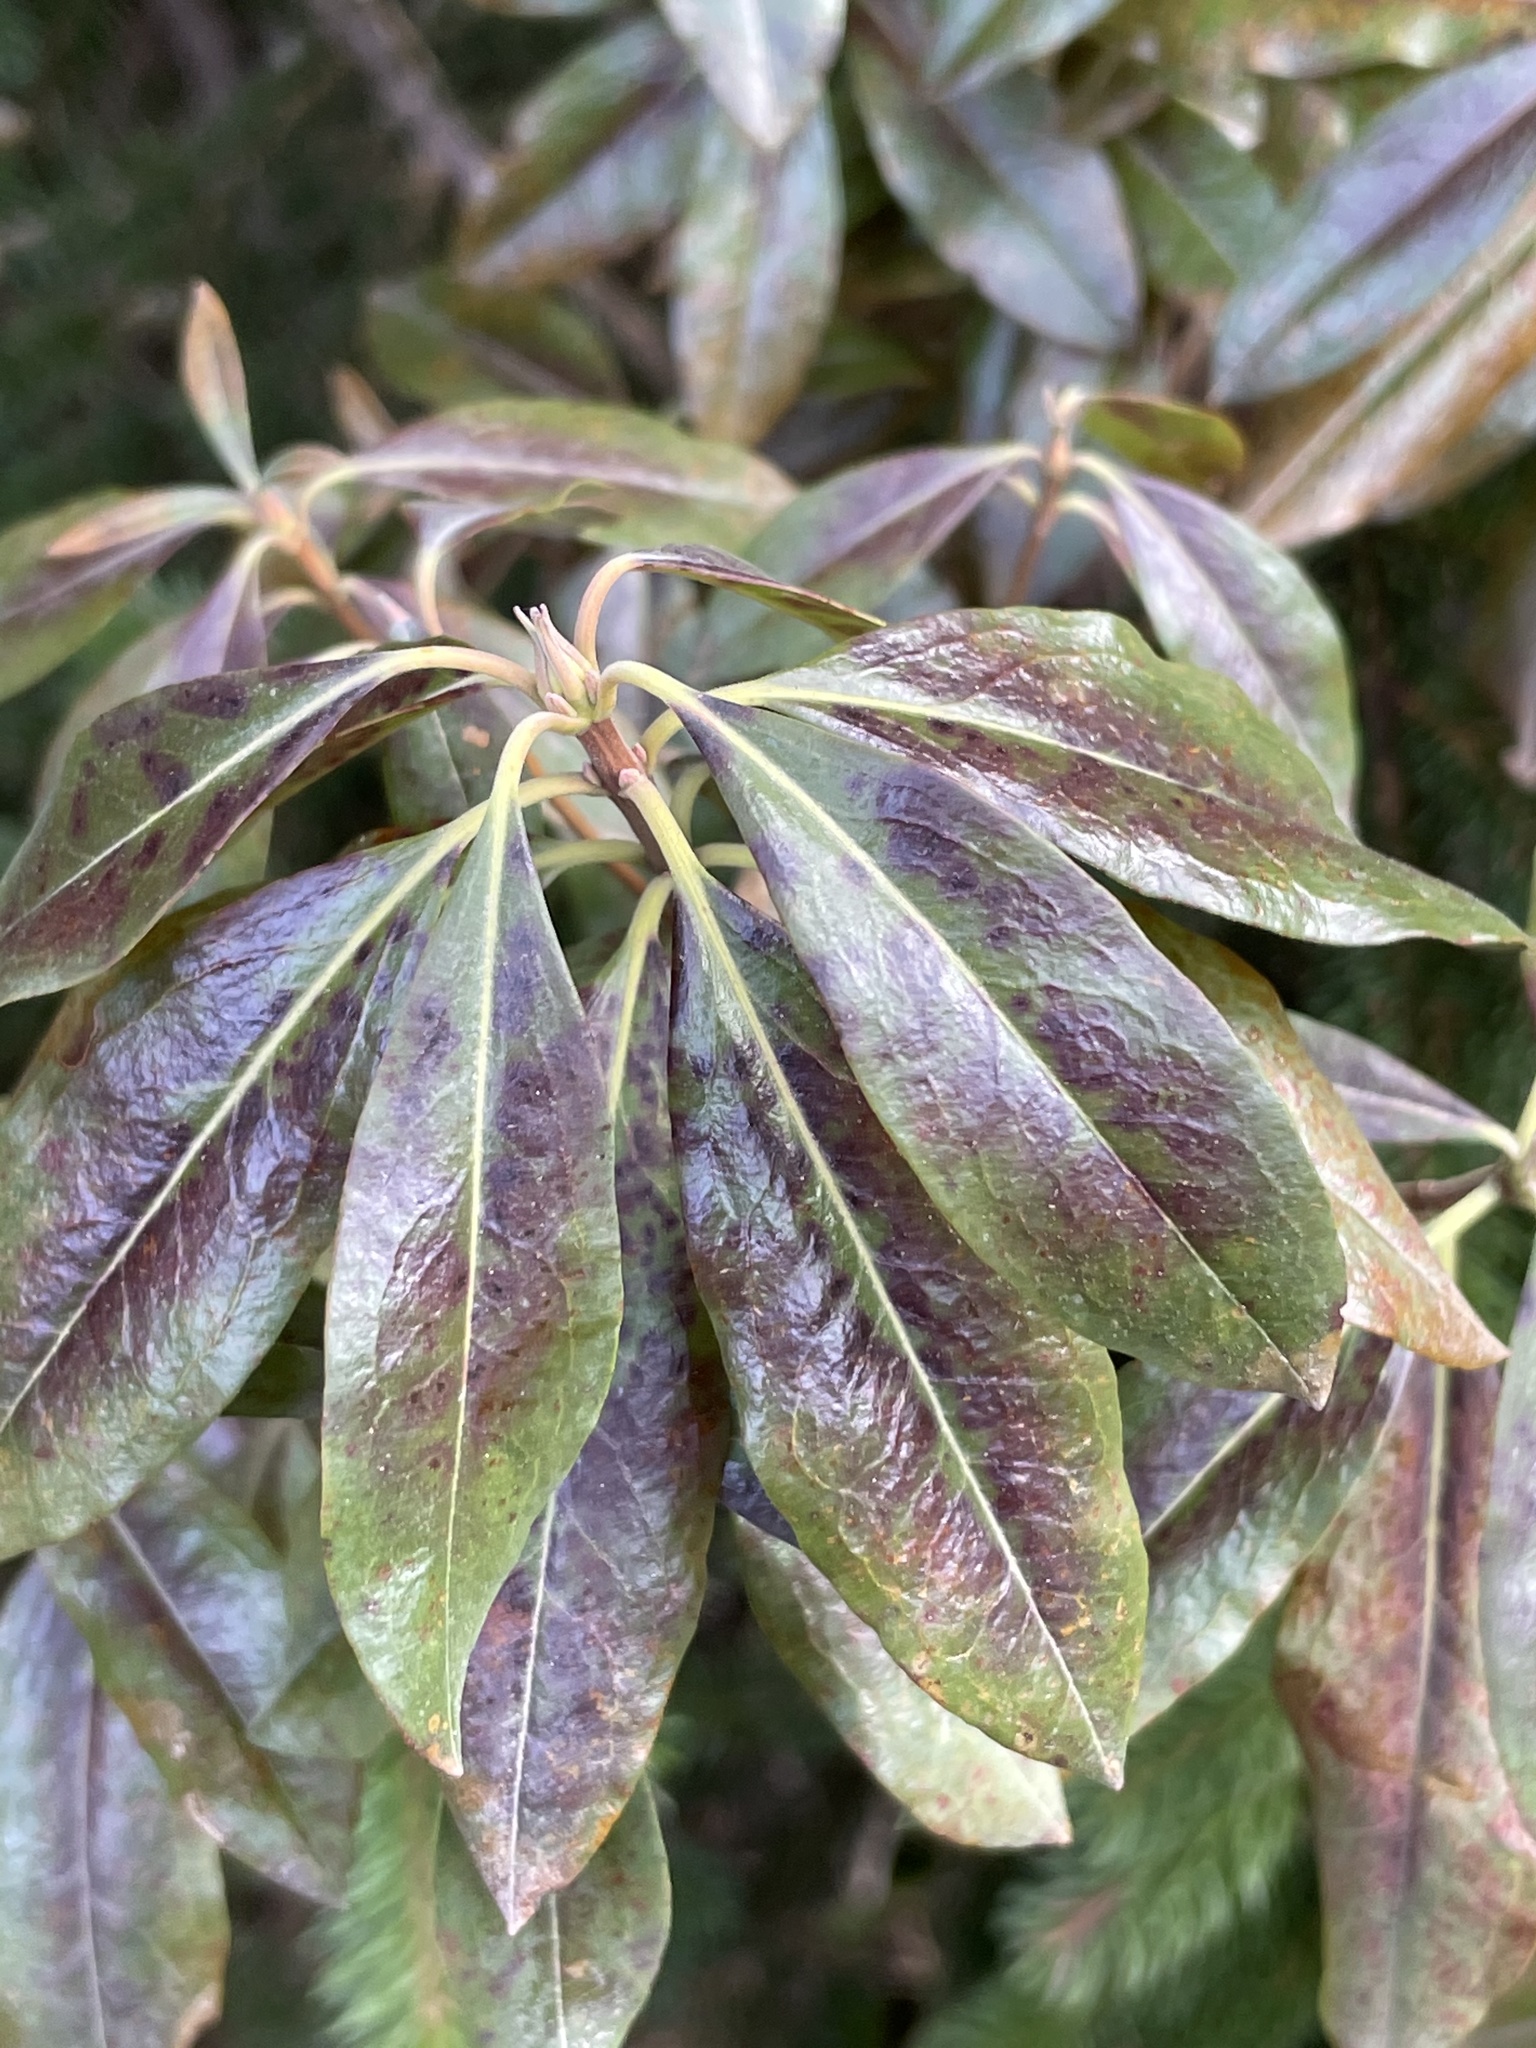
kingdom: Plantae
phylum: Tracheophyta
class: Magnoliopsida
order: Ericales
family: Ericaceae
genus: Kalmia
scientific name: Kalmia angustifolia
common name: Sheep-laurel
